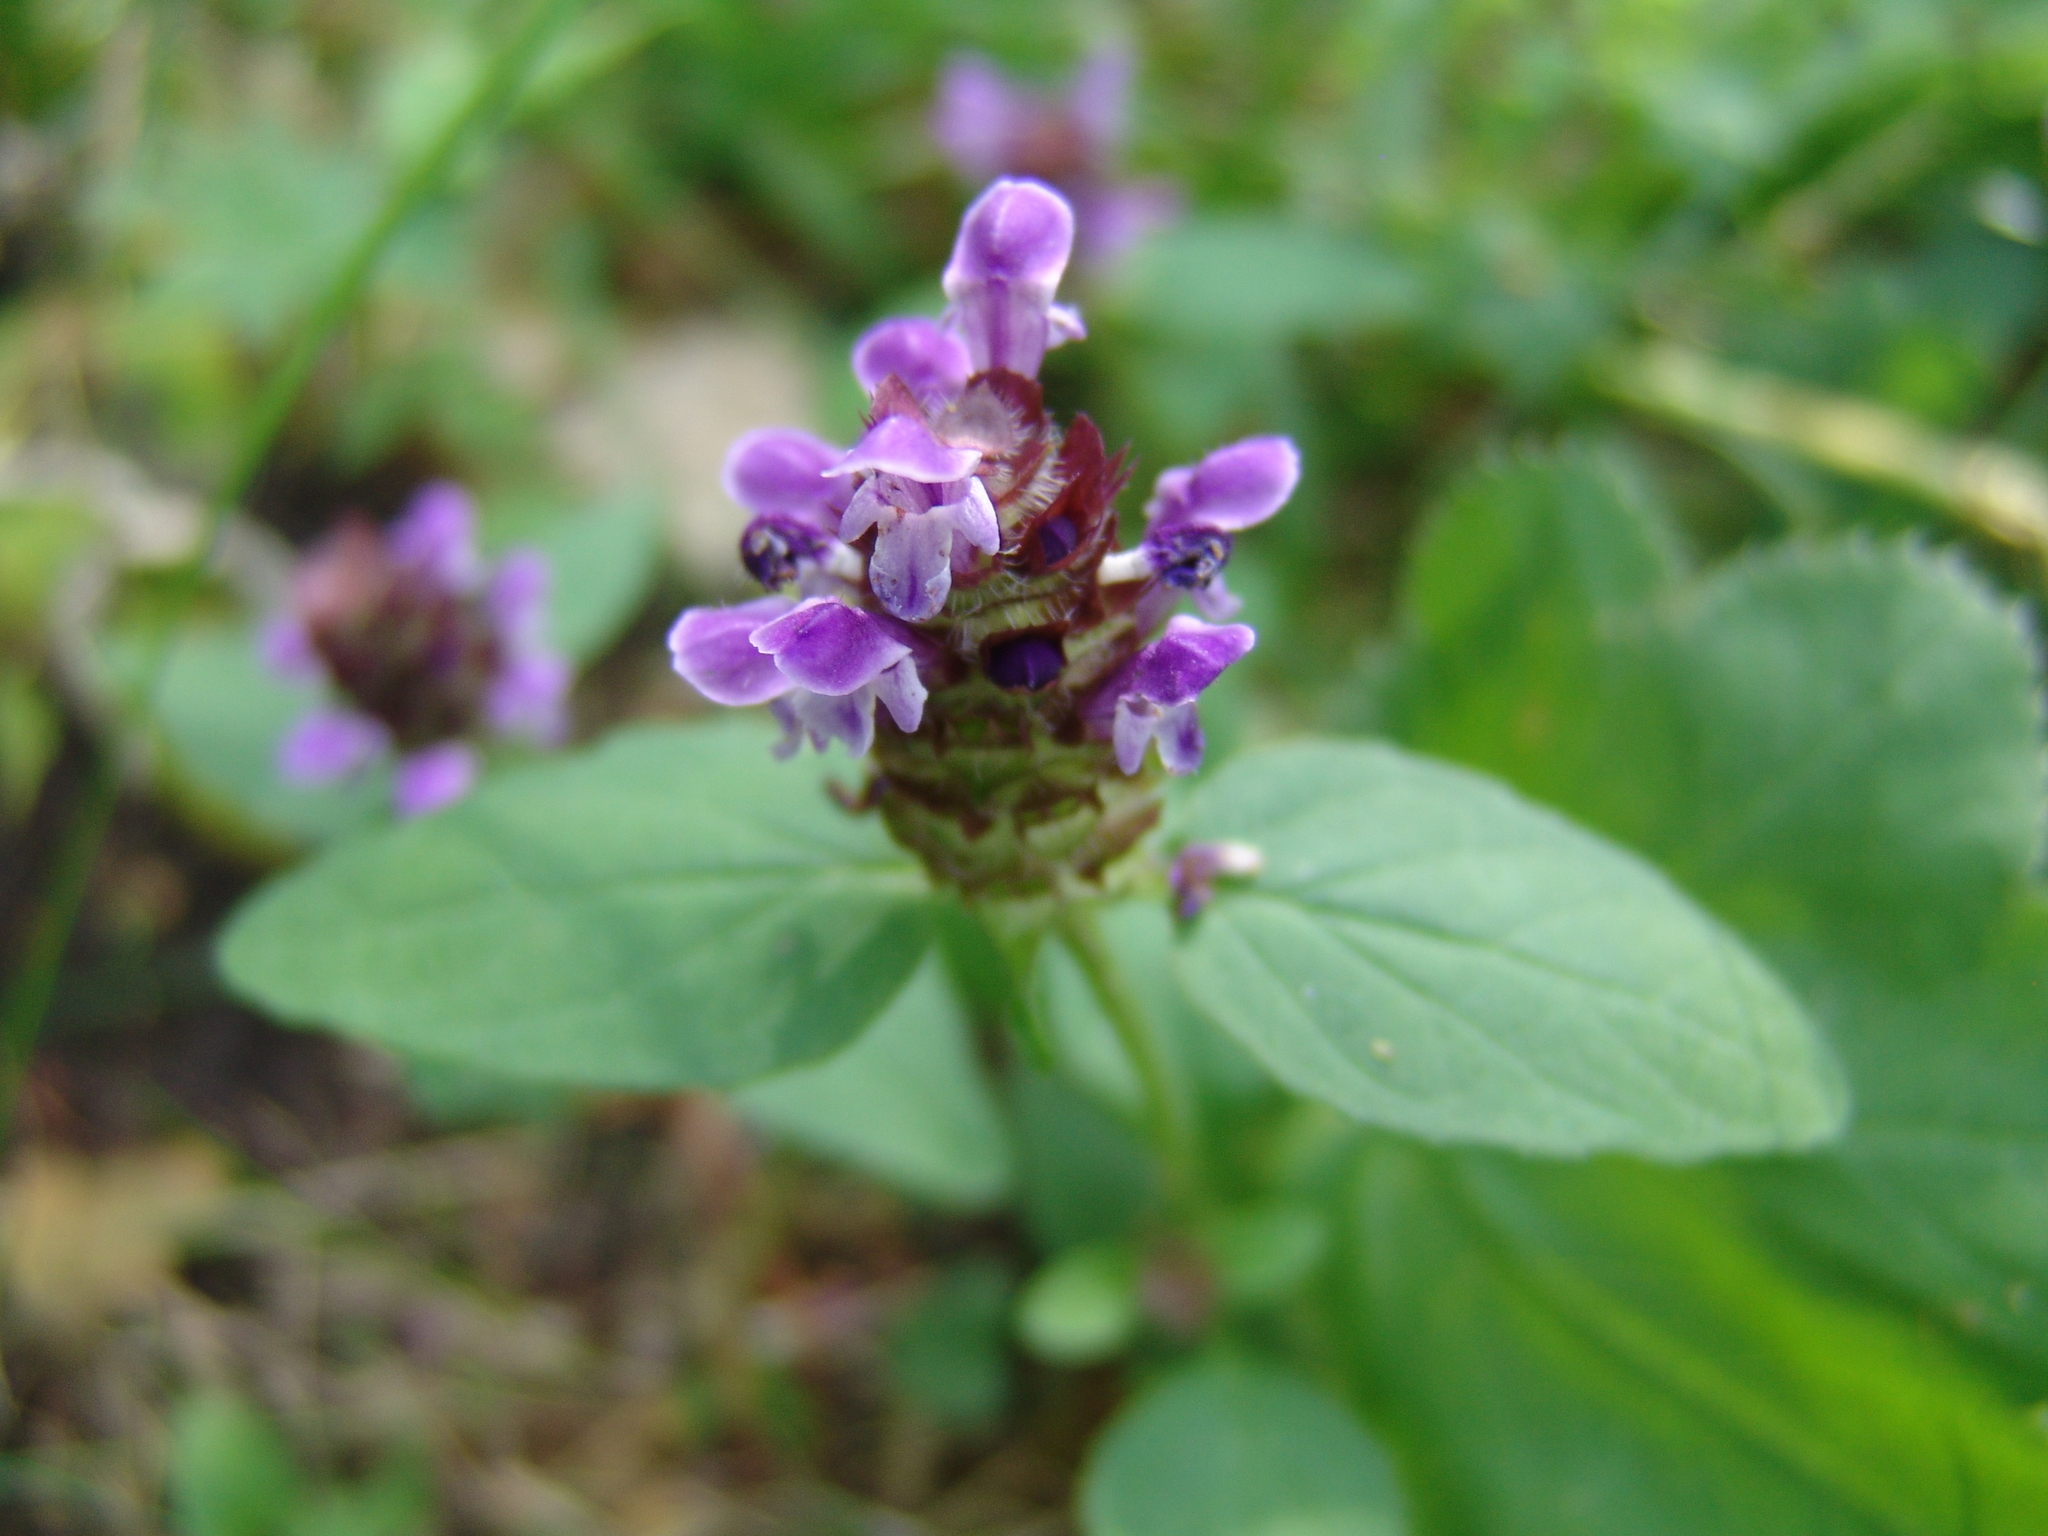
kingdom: Plantae
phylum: Tracheophyta
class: Magnoliopsida
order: Lamiales
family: Lamiaceae
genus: Prunella
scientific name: Prunella vulgaris
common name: Heal-all
